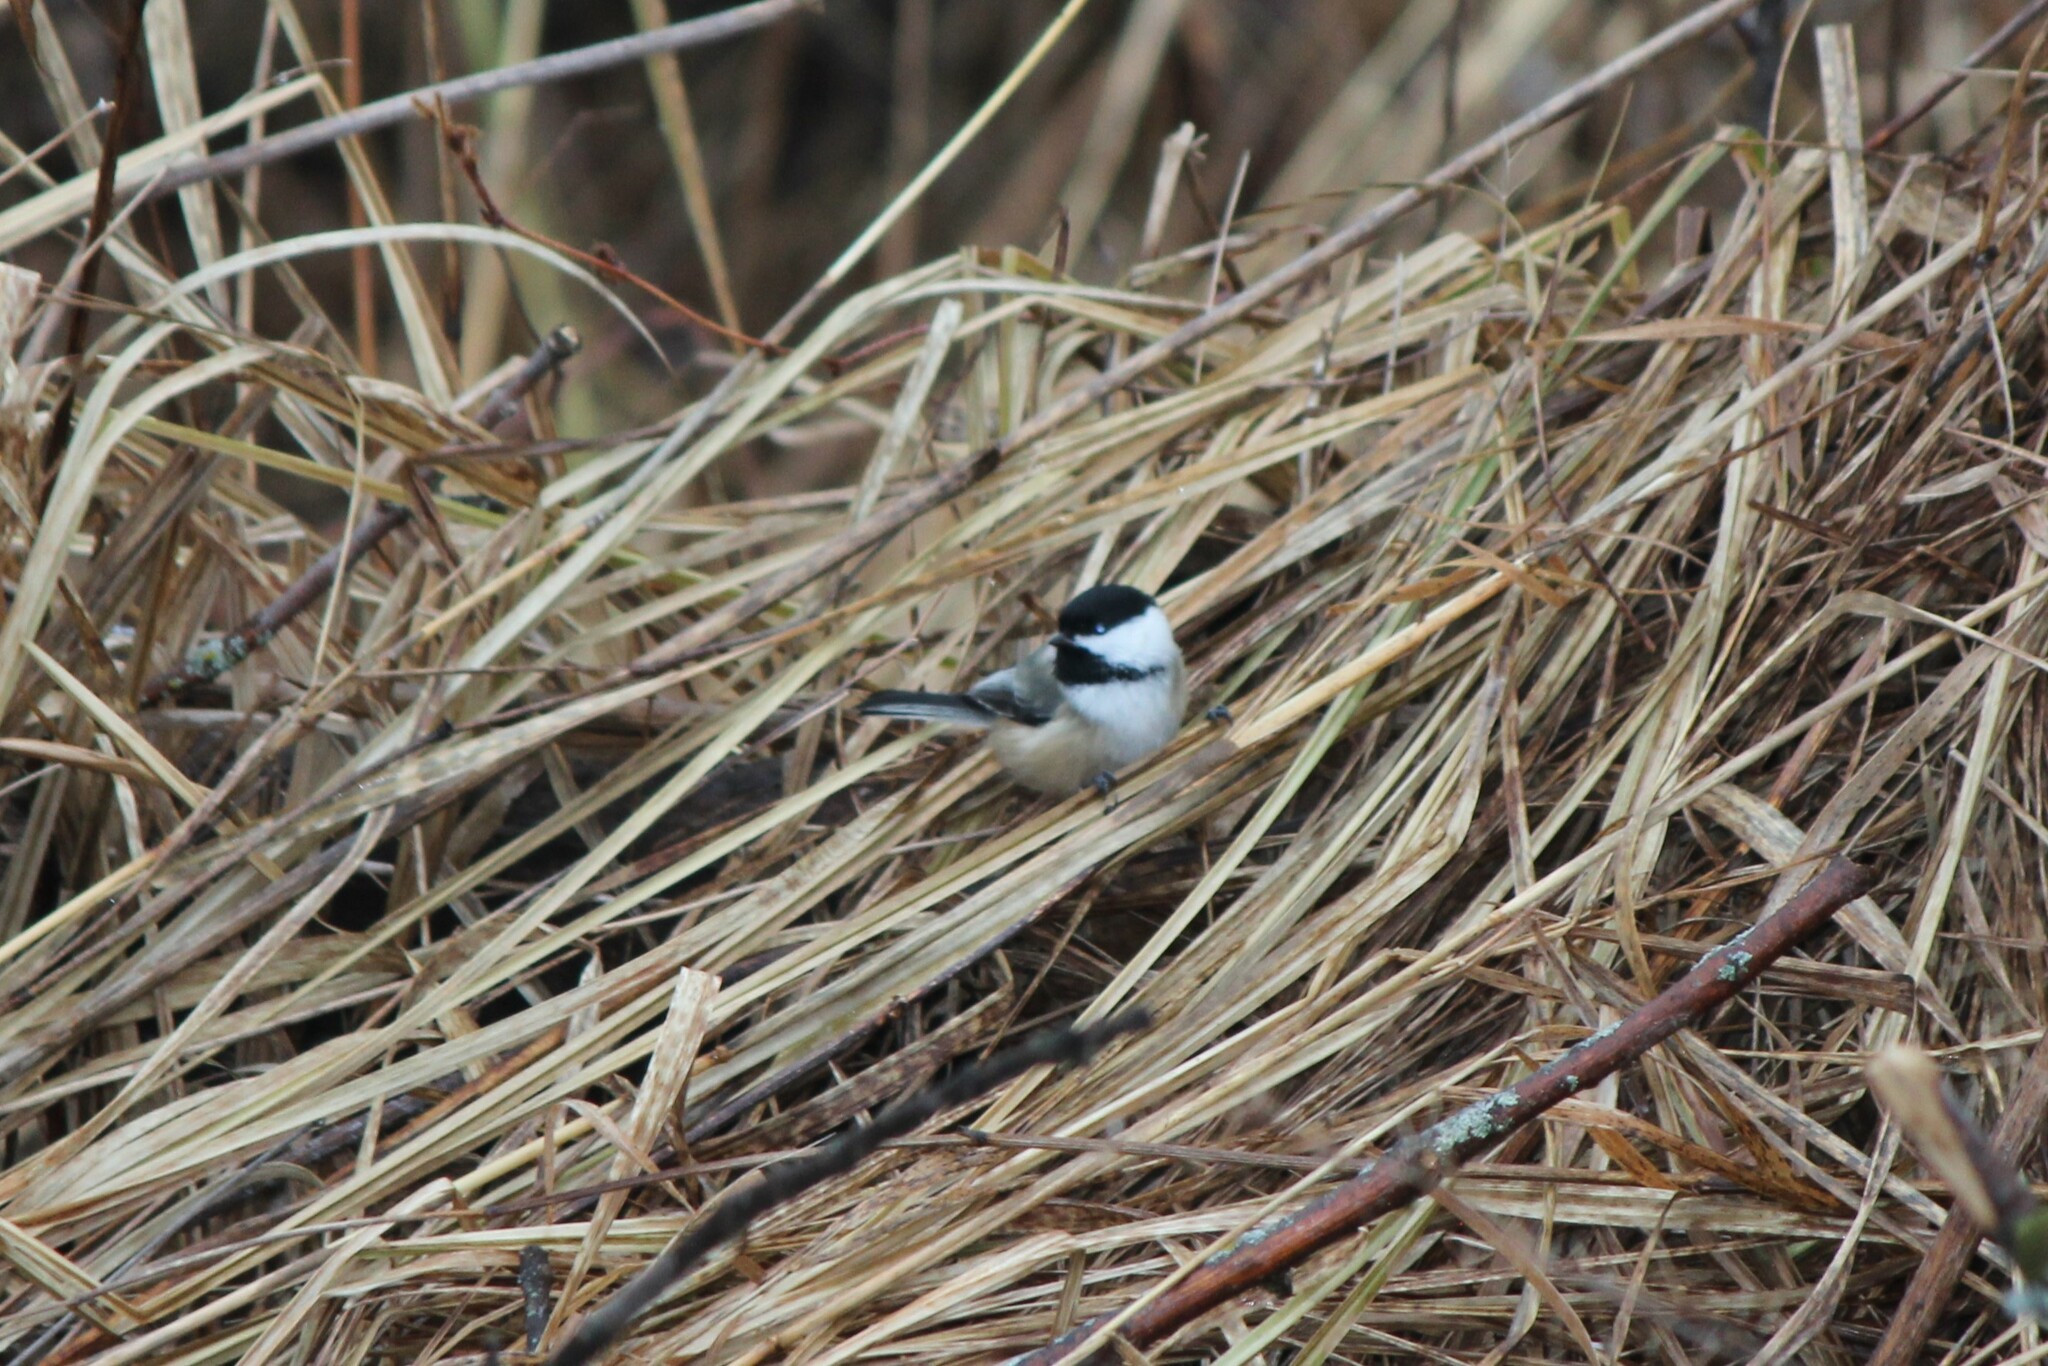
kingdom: Animalia
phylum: Chordata
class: Aves
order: Passeriformes
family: Paridae
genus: Poecile
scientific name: Poecile atricapillus
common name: Black-capped chickadee
